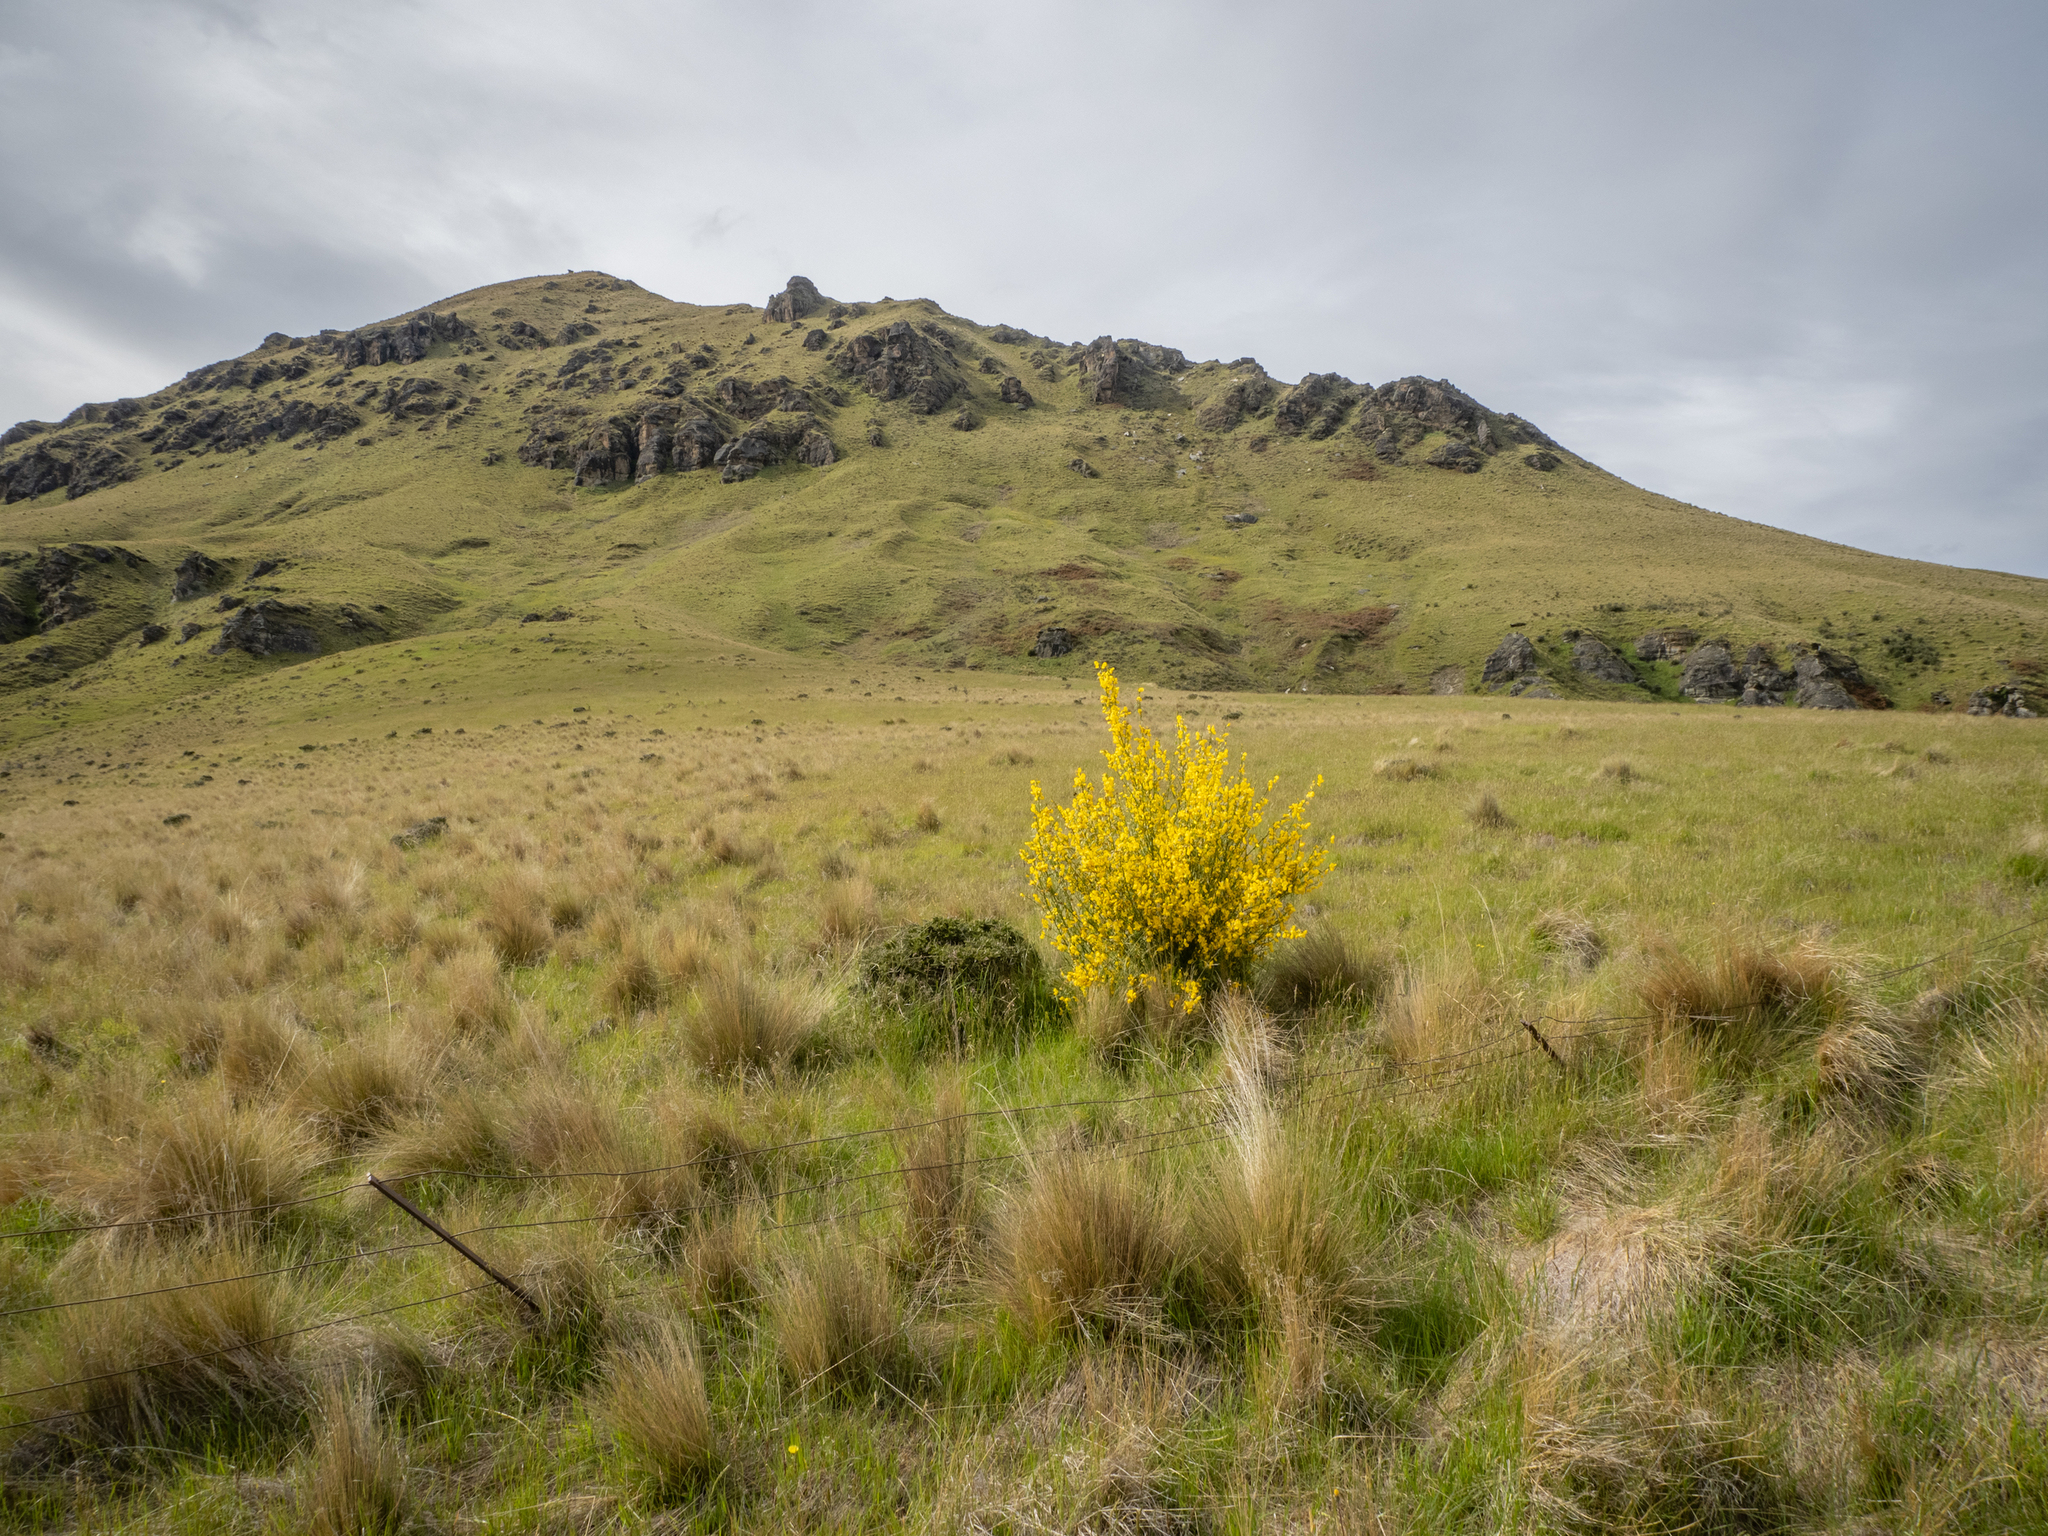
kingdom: Plantae
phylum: Tracheophyta
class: Magnoliopsida
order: Fabales
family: Fabaceae
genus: Cytisus
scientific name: Cytisus scoparius
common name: Scotch broom
